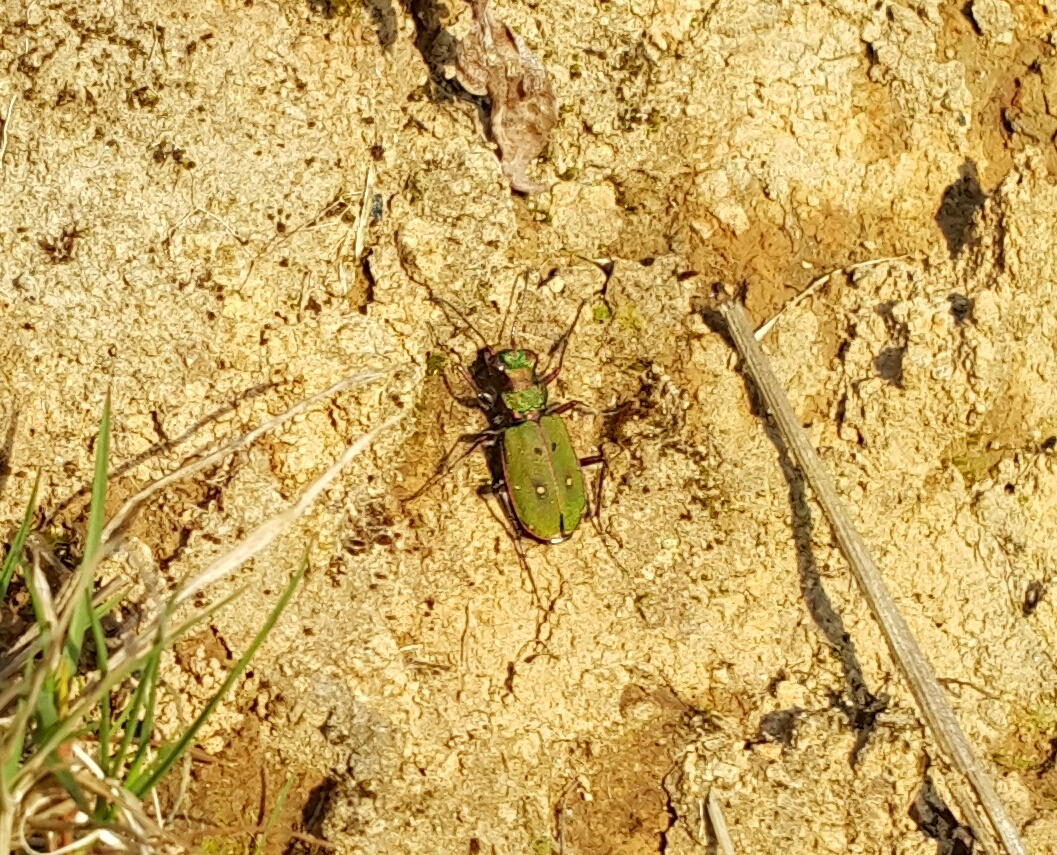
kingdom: Animalia
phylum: Arthropoda
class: Insecta
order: Coleoptera
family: Carabidae
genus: Cicindela
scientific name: Cicindela campestris
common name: Common tiger beetle
